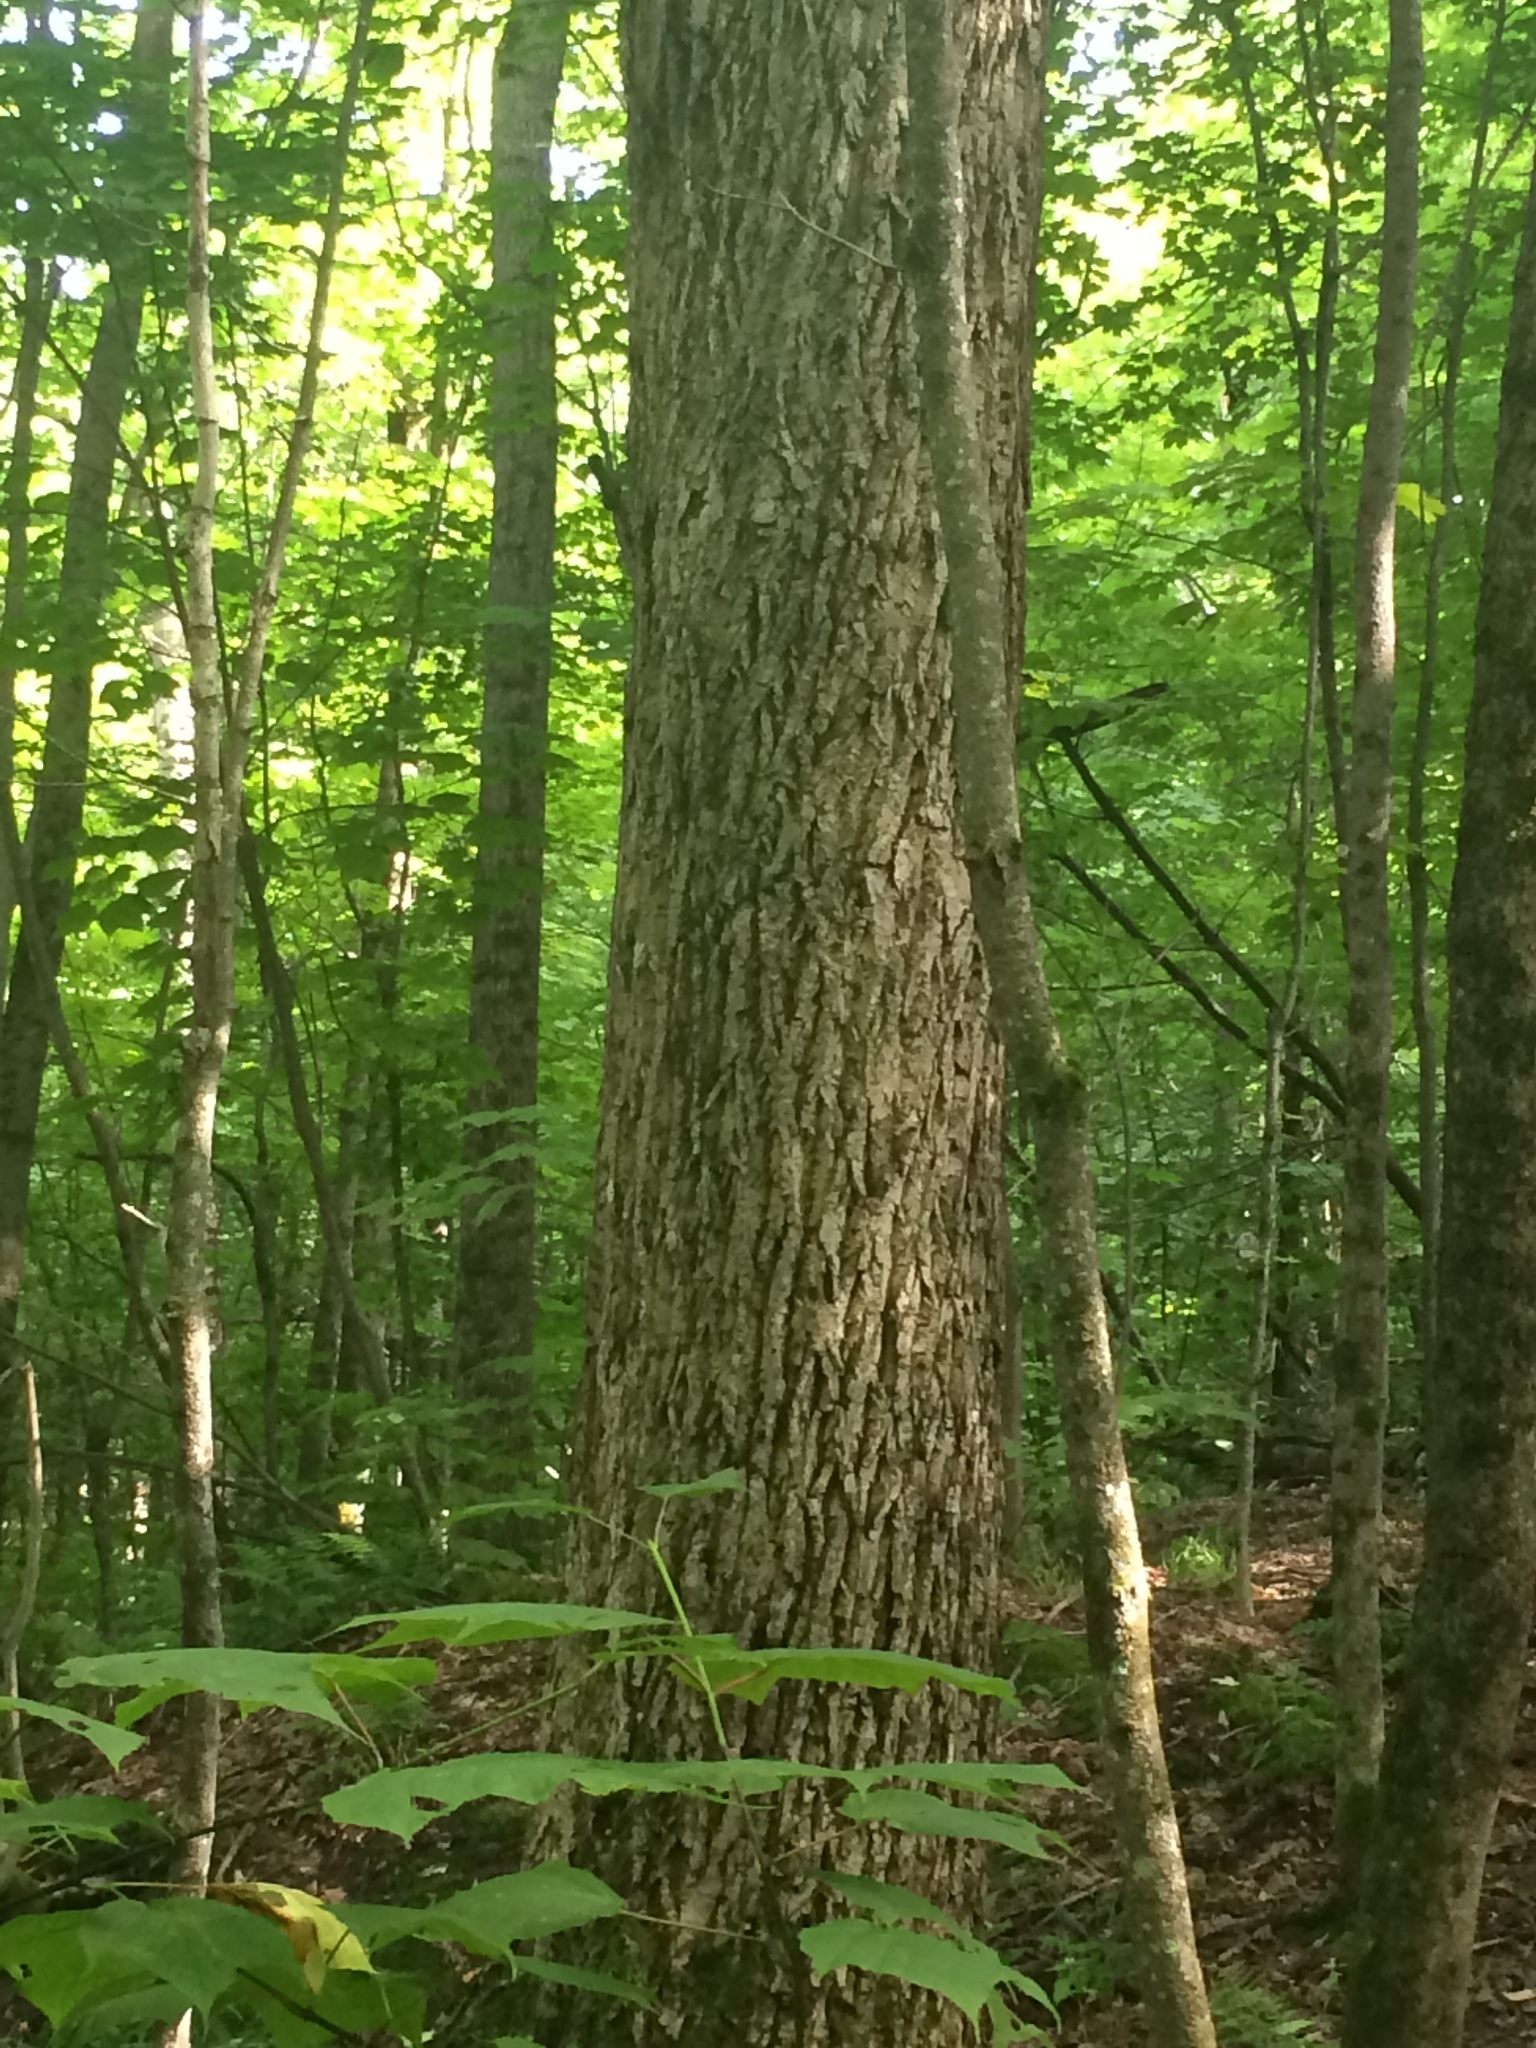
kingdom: Plantae
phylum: Tracheophyta
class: Magnoliopsida
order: Fagales
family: Juglandaceae
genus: Juglans
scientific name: Juglans cinerea
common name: Butternut
